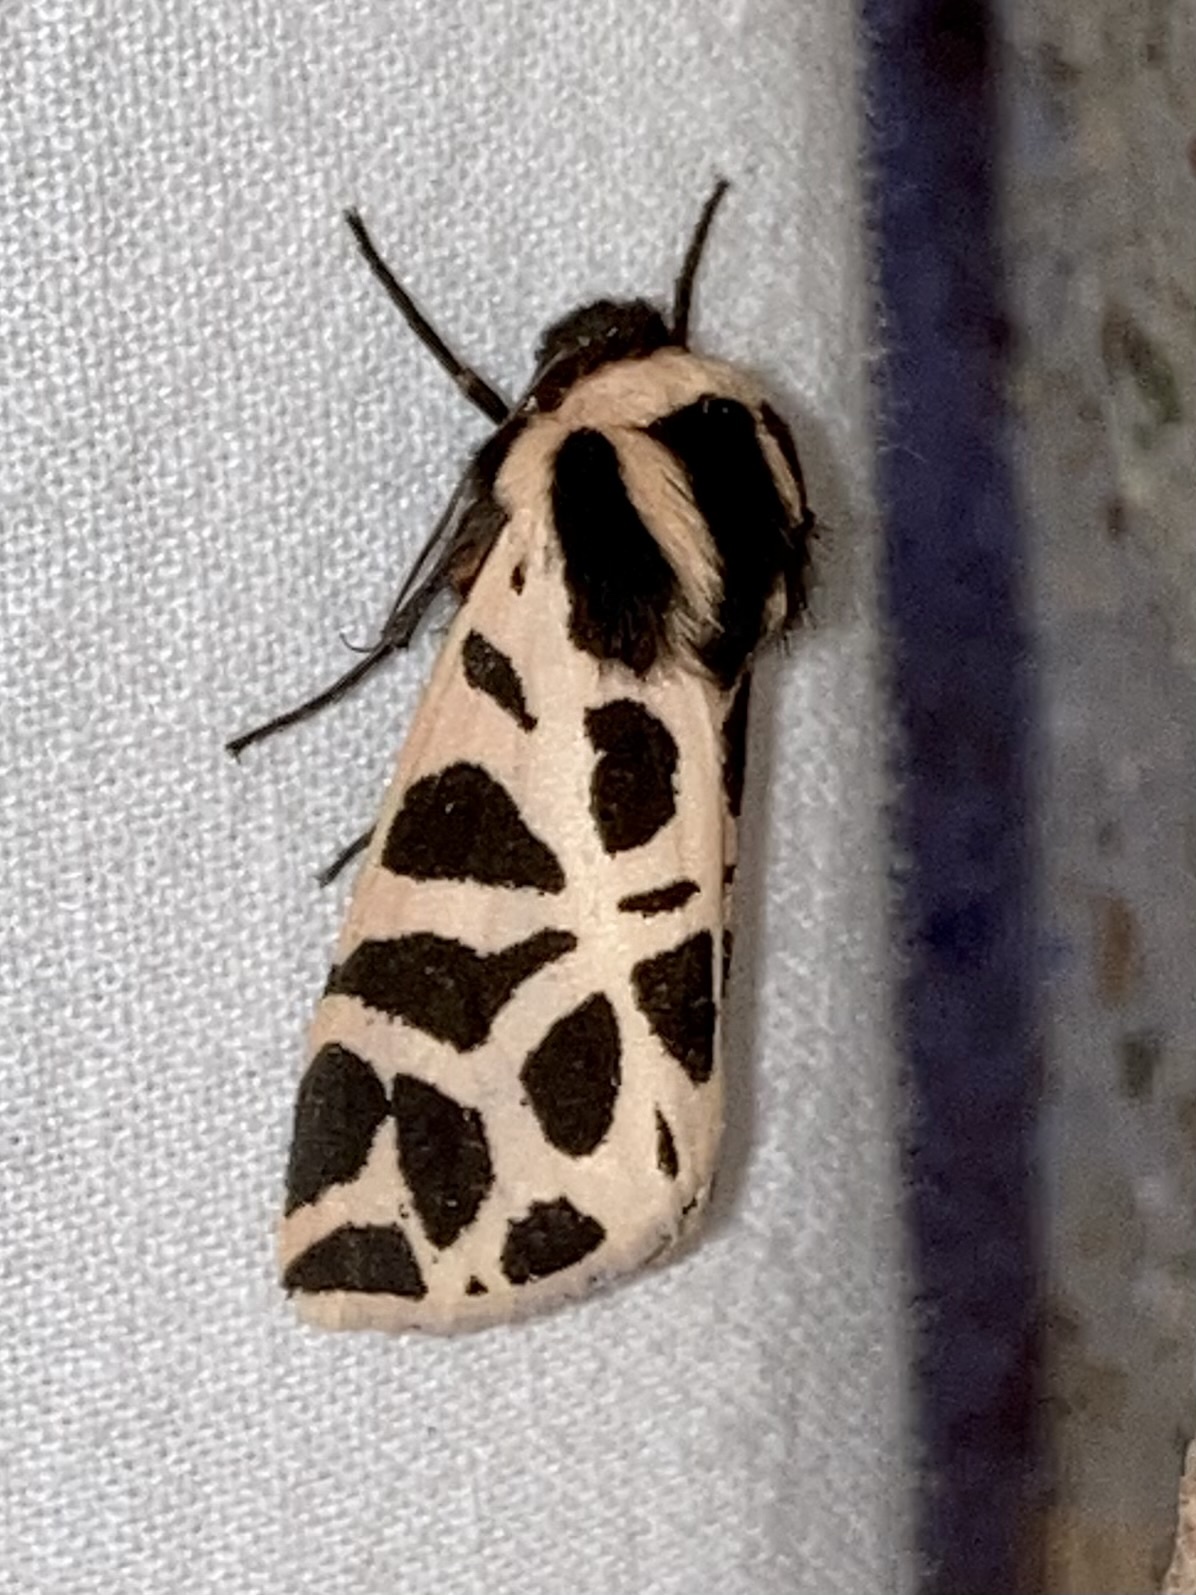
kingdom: Animalia
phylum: Arthropoda
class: Insecta
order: Lepidoptera
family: Erebidae
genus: Cymbalophora
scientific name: Cymbalophora pudica
